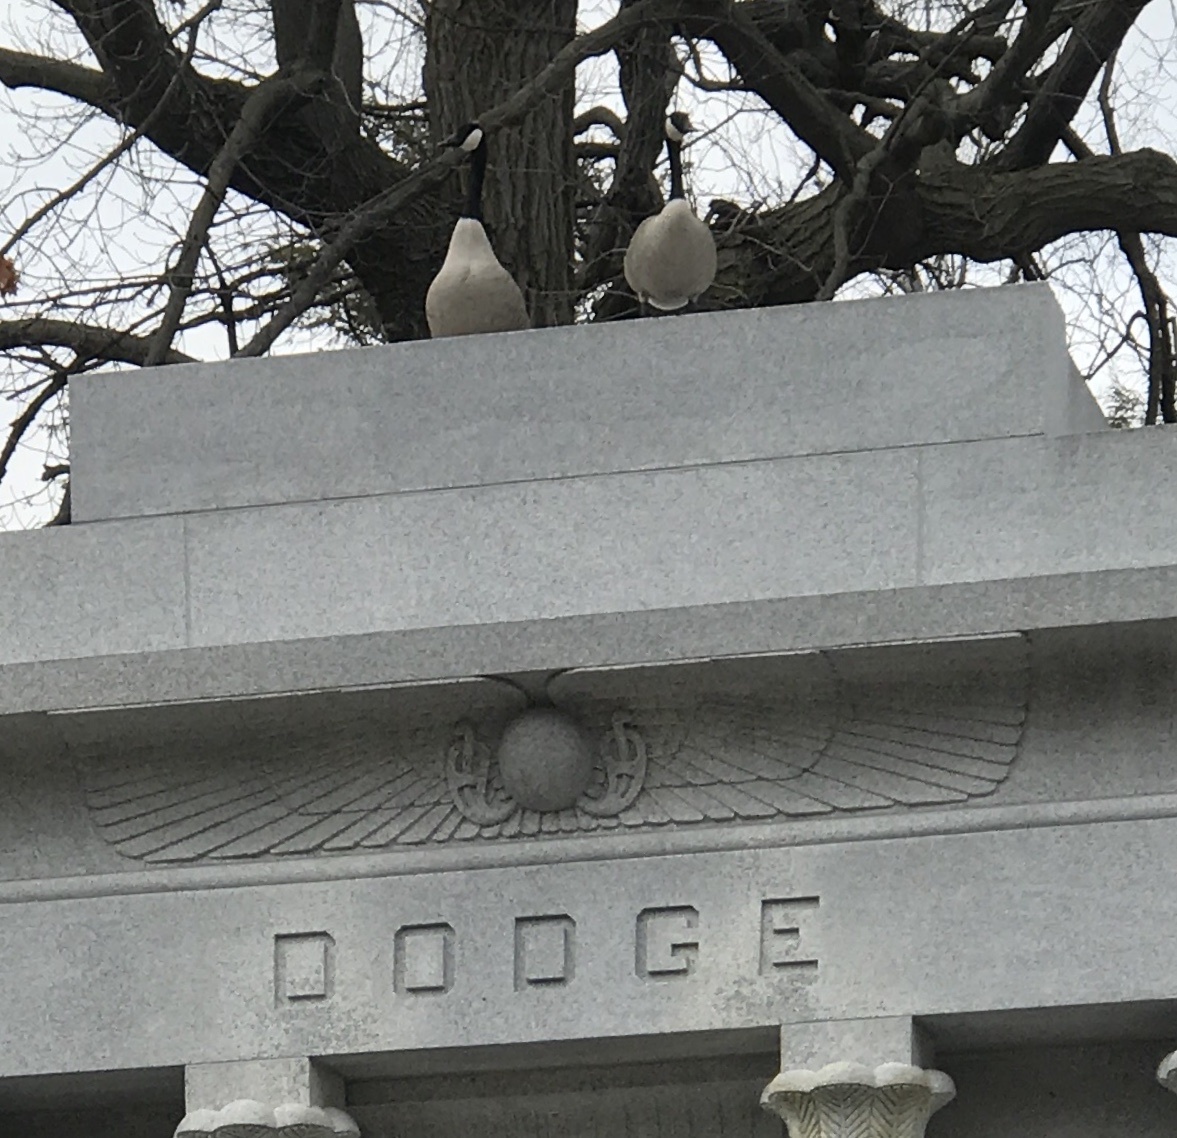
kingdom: Animalia
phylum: Chordata
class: Aves
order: Anseriformes
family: Anatidae
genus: Branta
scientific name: Branta canadensis
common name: Canada goose
